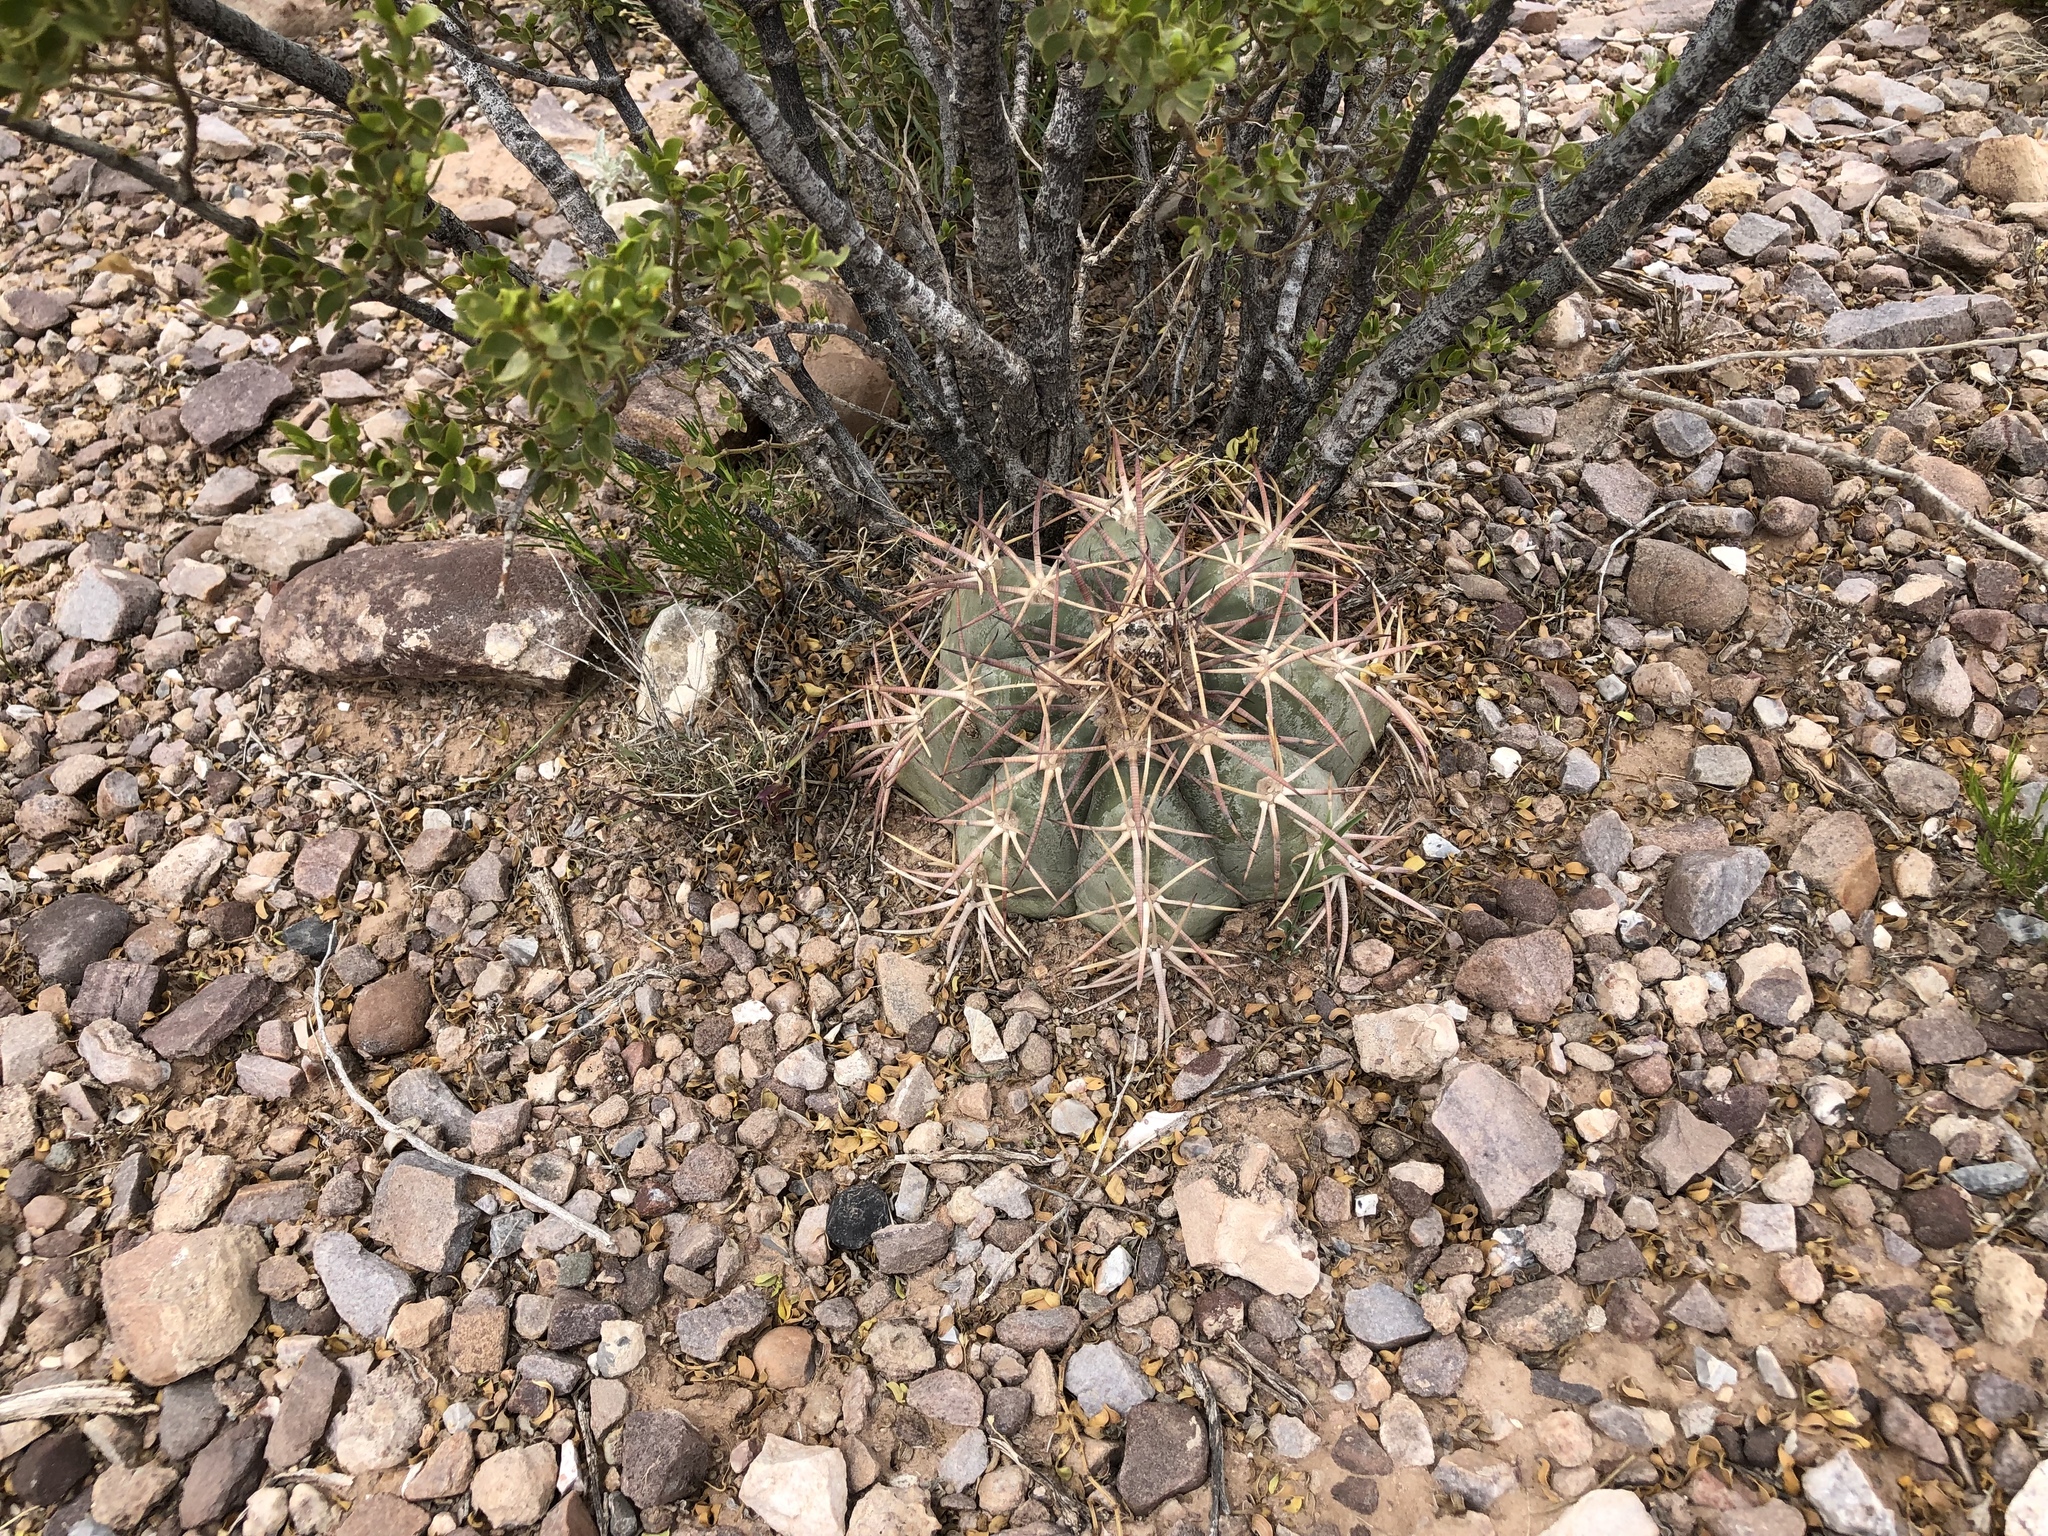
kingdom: Plantae
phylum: Tracheophyta
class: Magnoliopsida
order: Caryophyllales
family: Cactaceae
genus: Echinocactus
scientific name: Echinocactus horizonthalonius
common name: Devilshead
